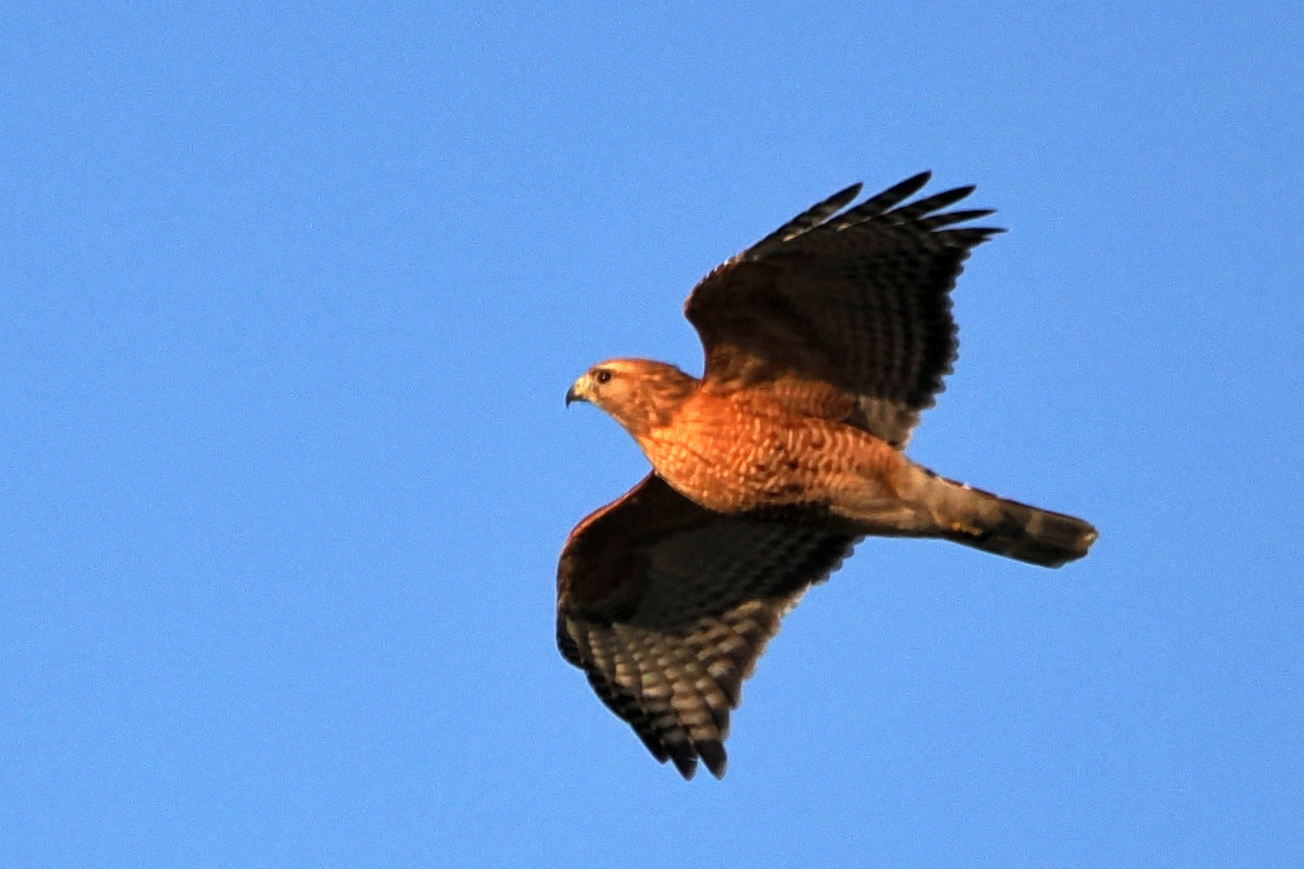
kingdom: Animalia
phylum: Chordata
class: Aves
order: Accipitriformes
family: Accipitridae
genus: Buteo
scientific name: Buteo lineatus
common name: Red-shouldered hawk
